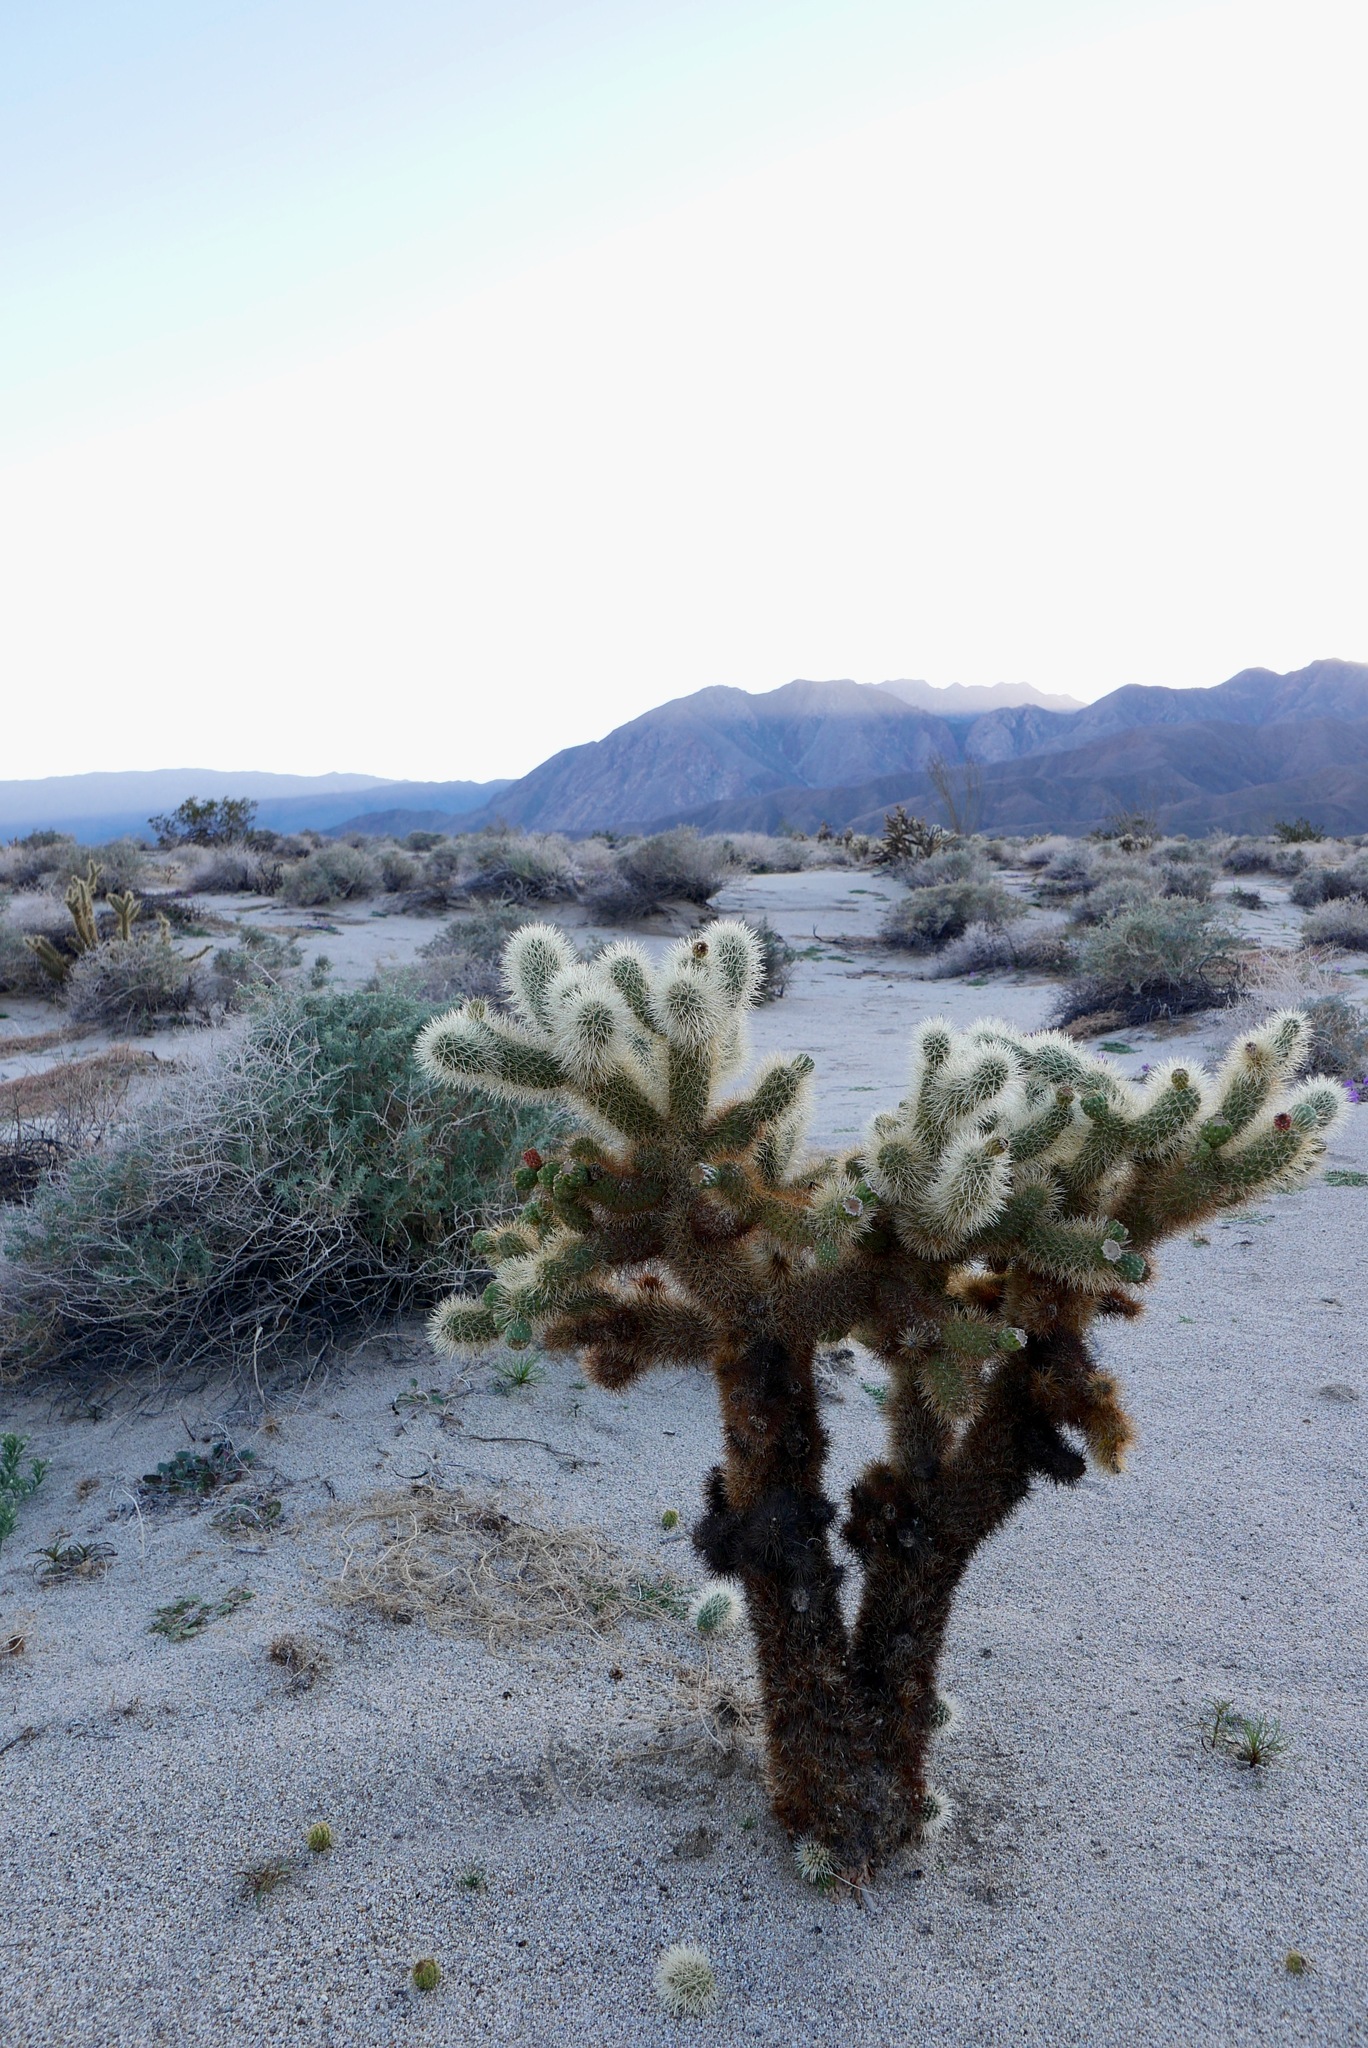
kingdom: Plantae
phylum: Tracheophyta
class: Magnoliopsida
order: Caryophyllales
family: Cactaceae
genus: Cylindropuntia
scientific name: Cylindropuntia fosbergii
